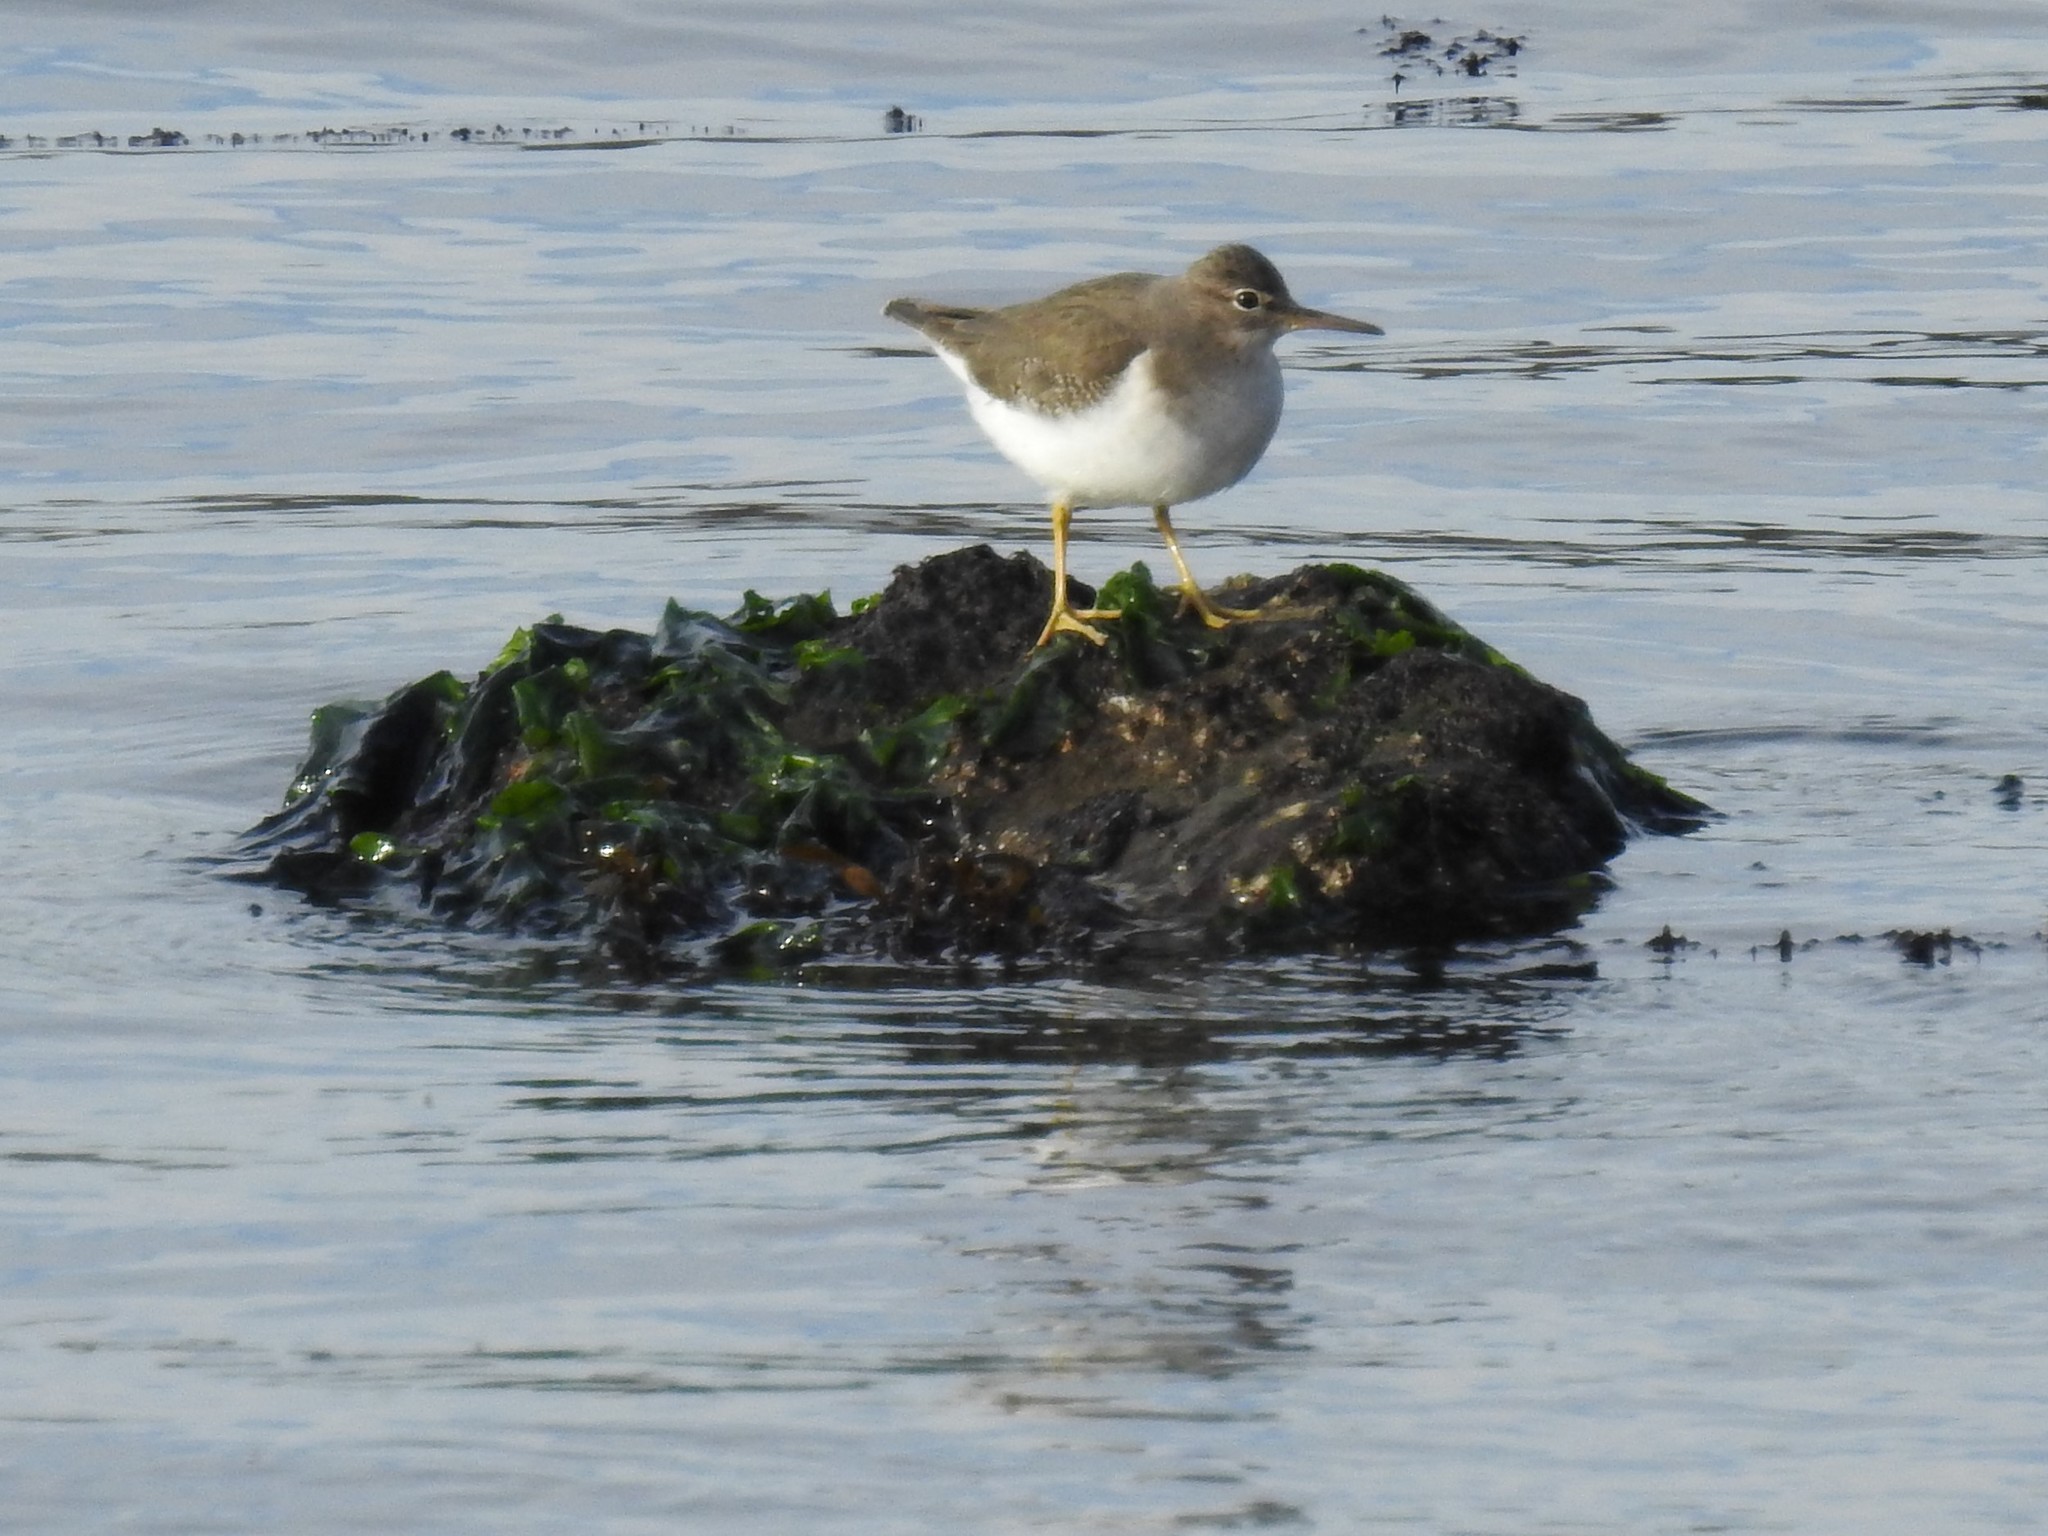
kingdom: Animalia
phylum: Chordata
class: Aves
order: Charadriiformes
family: Scolopacidae
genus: Actitis
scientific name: Actitis macularius
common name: Spotted sandpiper
